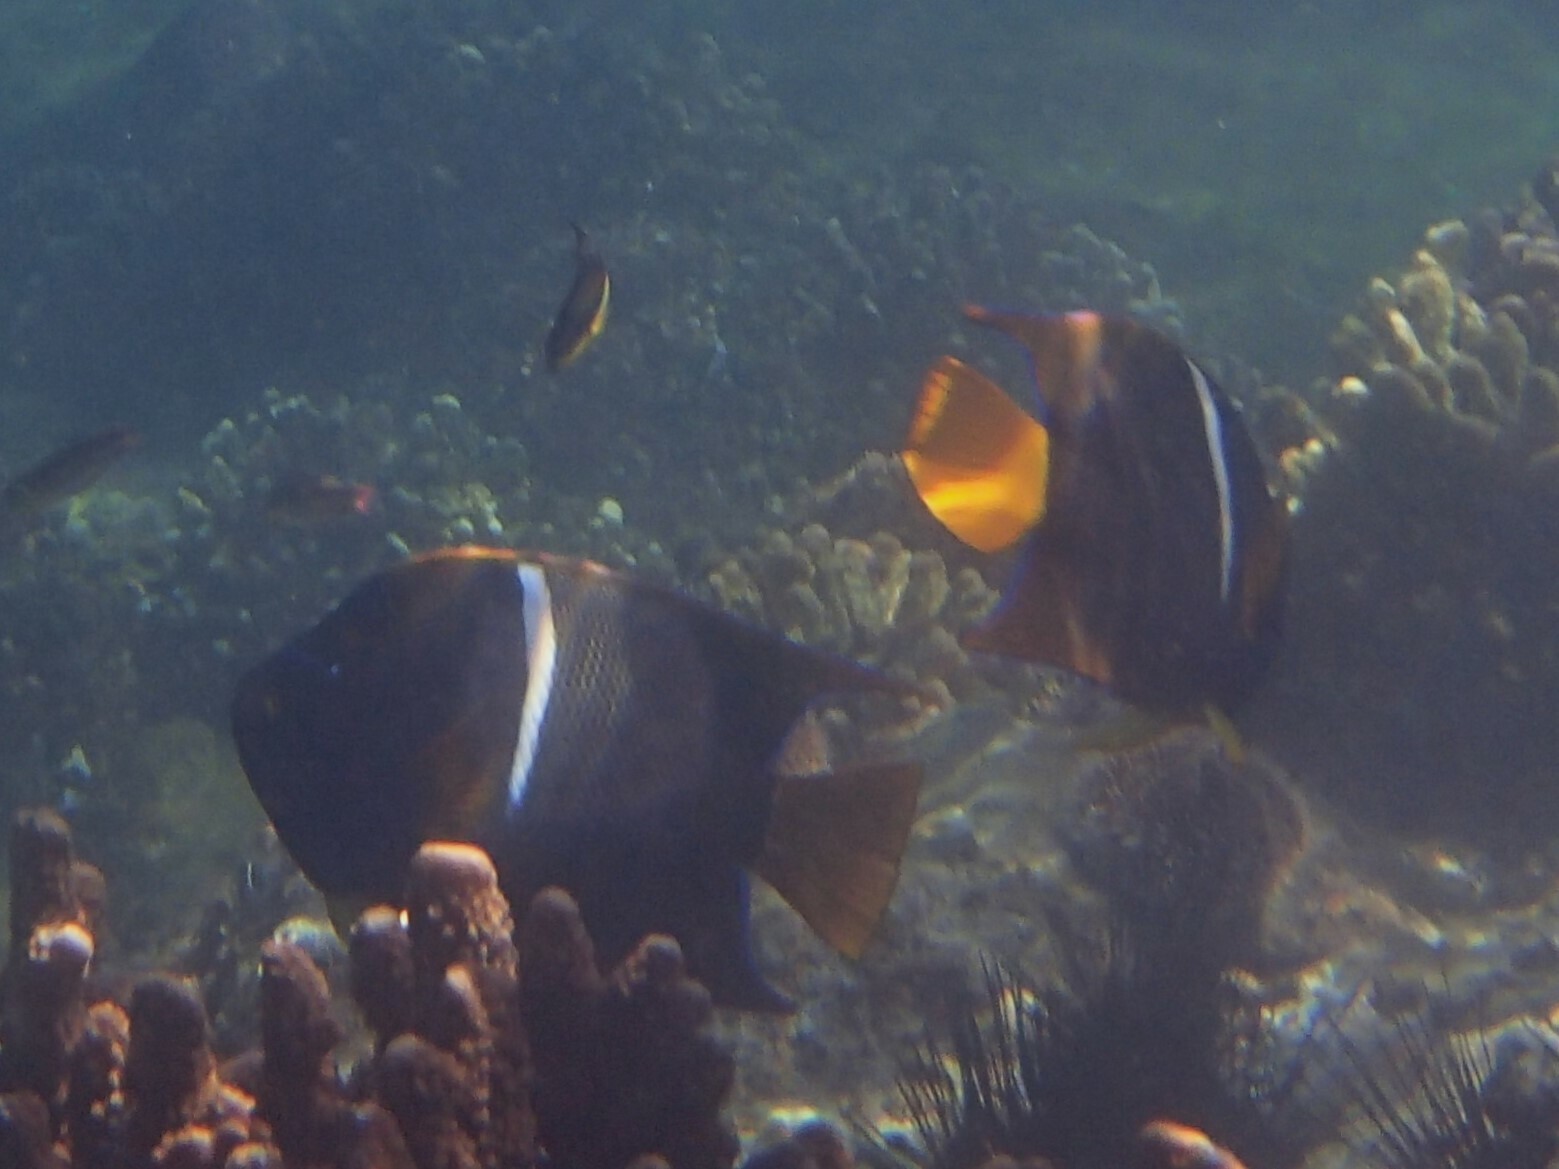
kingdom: Animalia
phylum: Chordata
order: Perciformes
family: Pomacanthidae
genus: Holacanthus
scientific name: Holacanthus passer
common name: King angelfish
